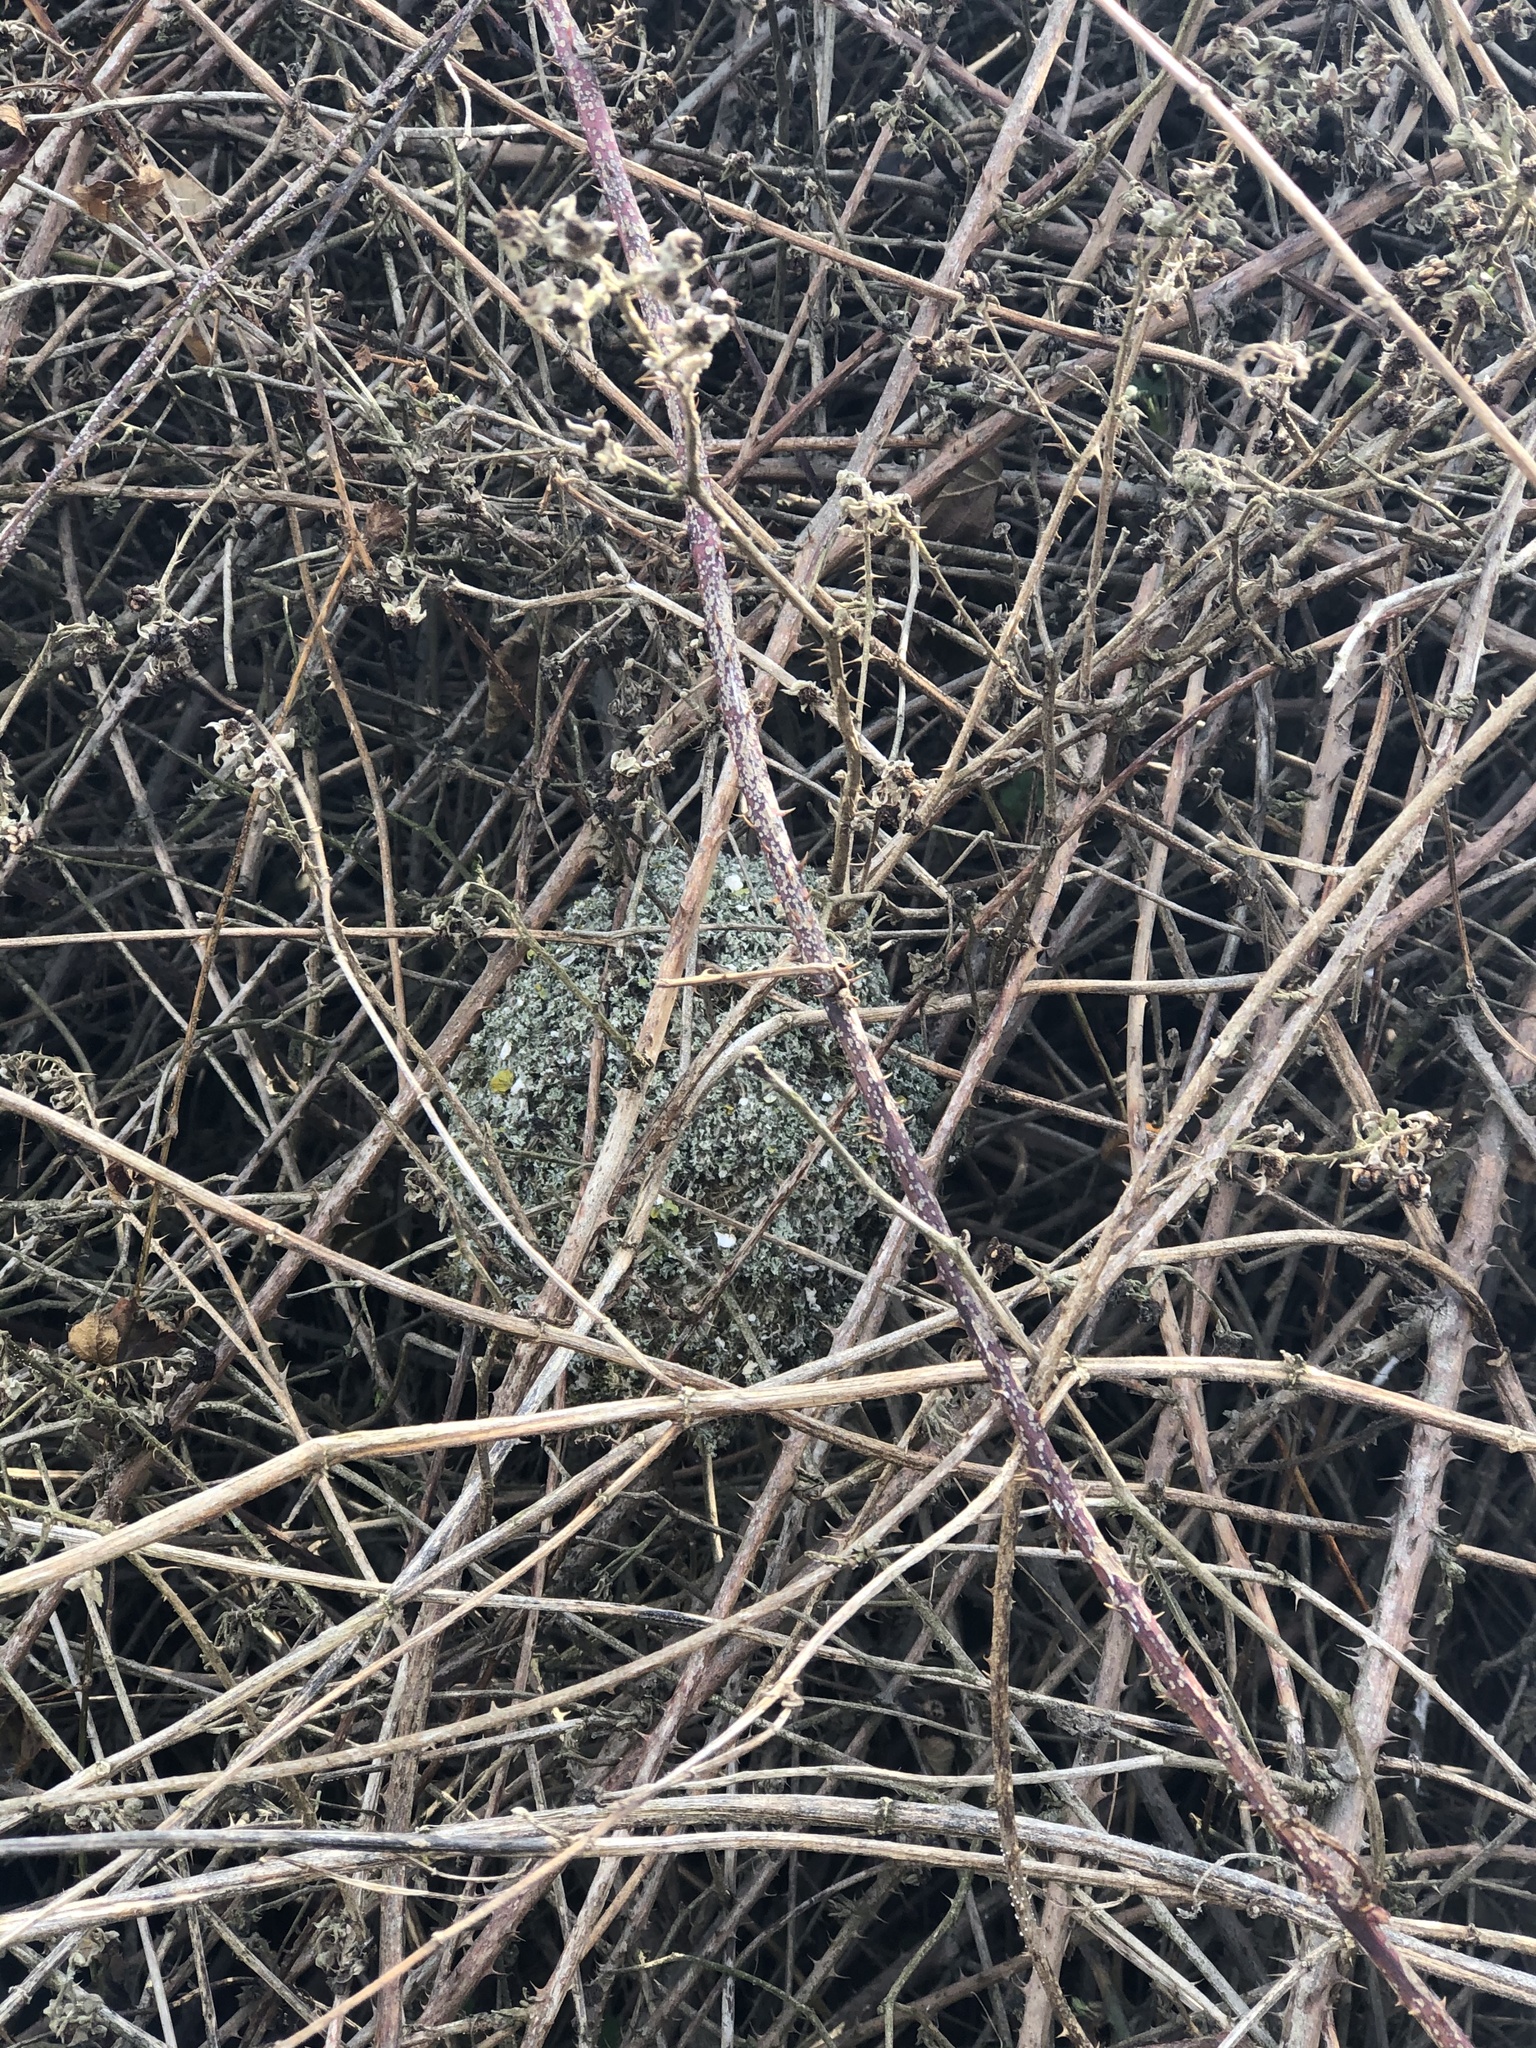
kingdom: Animalia
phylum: Chordata
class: Aves
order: Passeriformes
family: Aegithalidae
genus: Aegithalos
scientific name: Aegithalos caudatus
